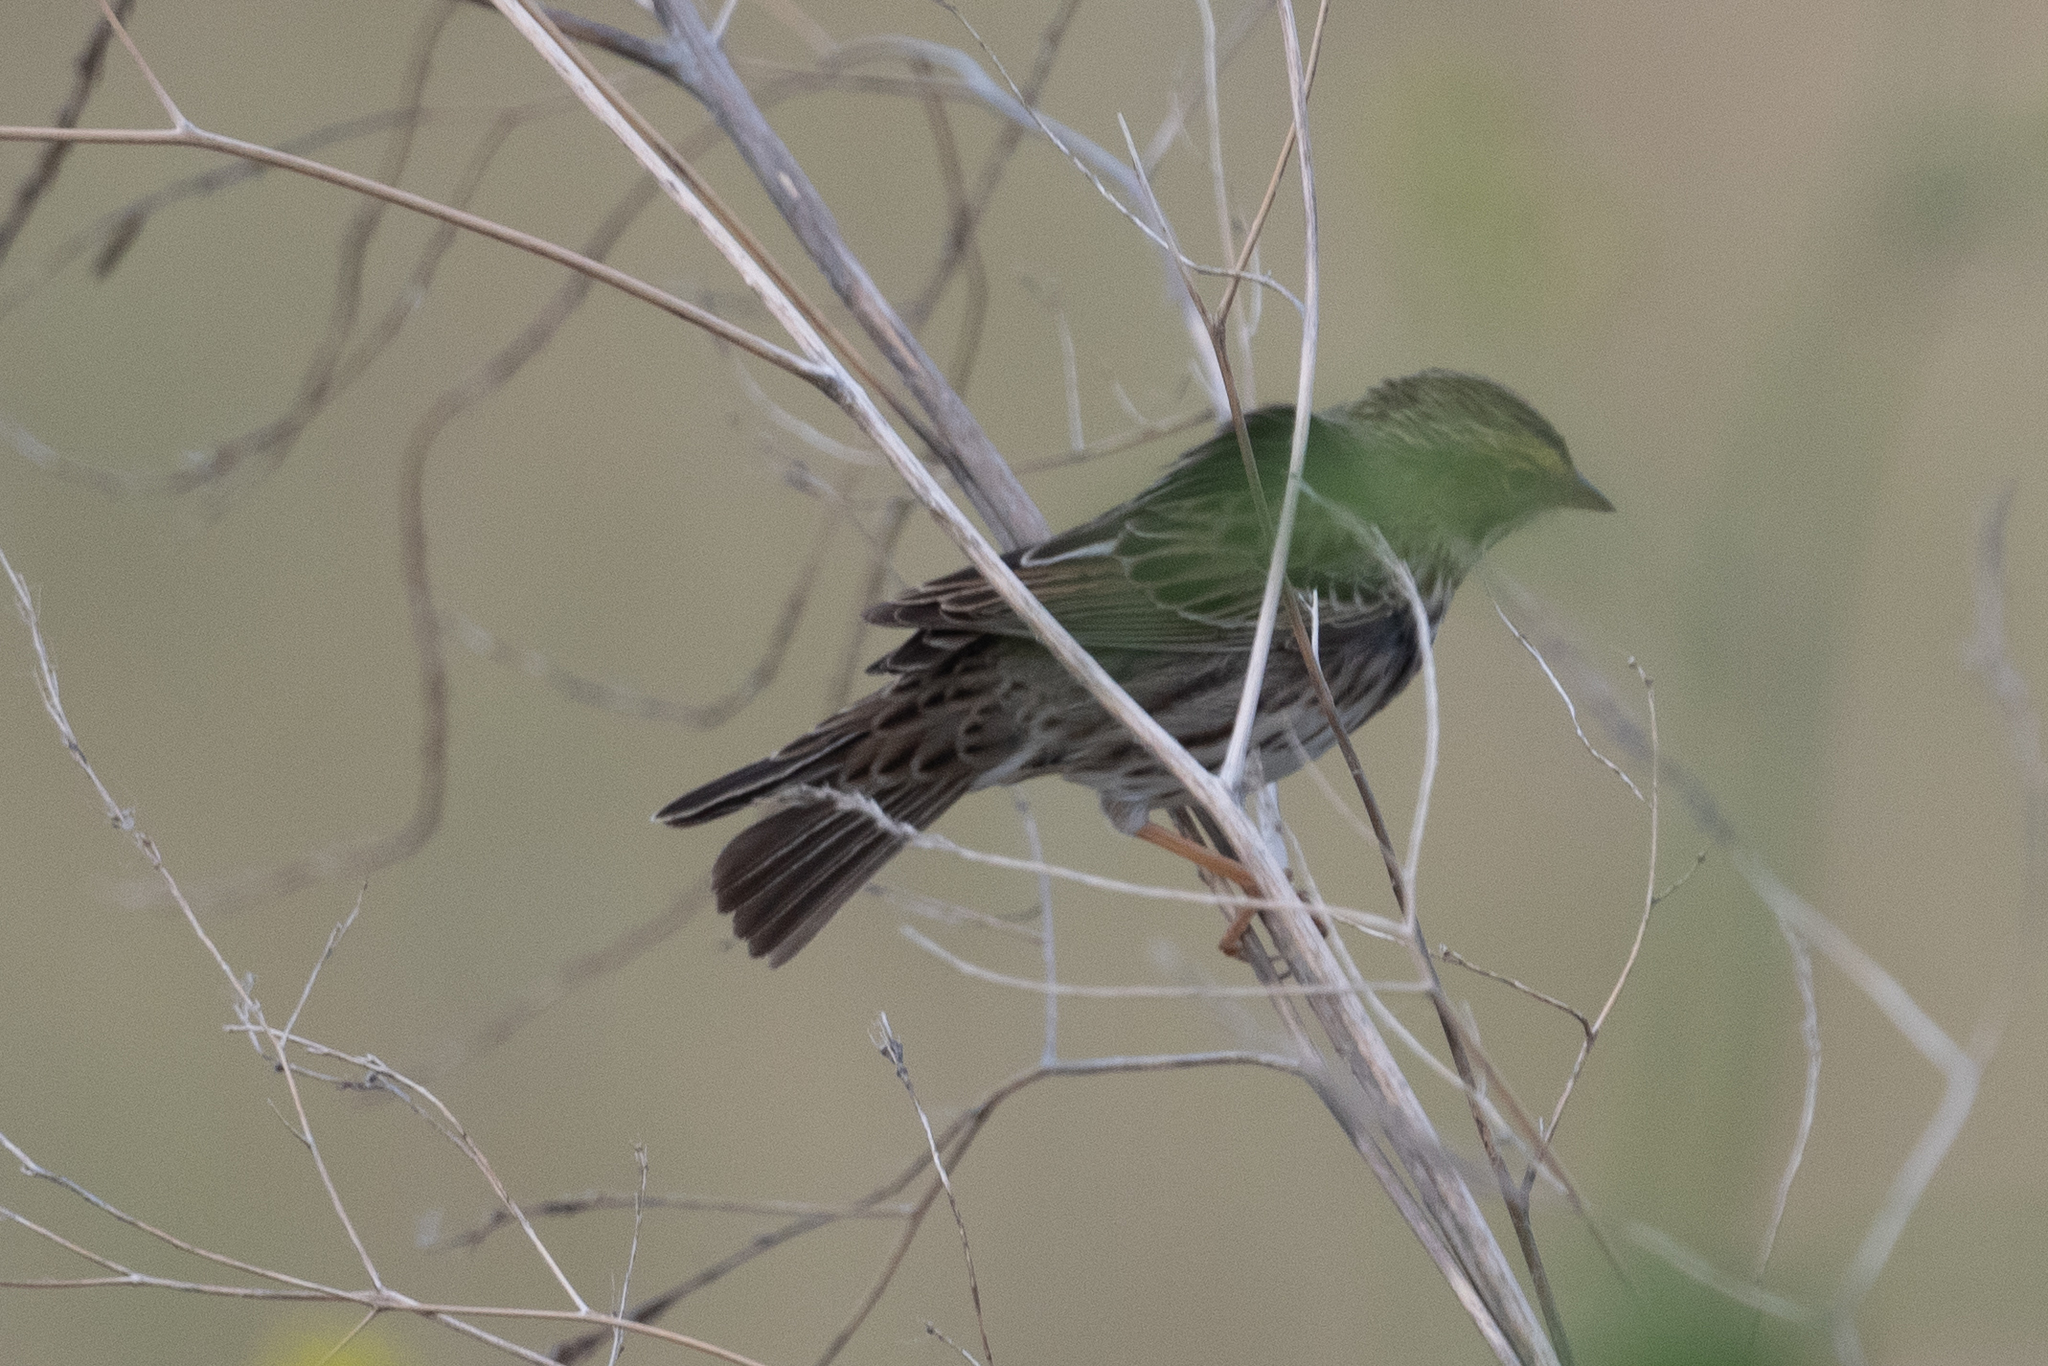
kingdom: Animalia
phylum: Chordata
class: Aves
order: Passeriformes
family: Passerellidae
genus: Passerculus
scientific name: Passerculus sandwichensis
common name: Savannah sparrow
